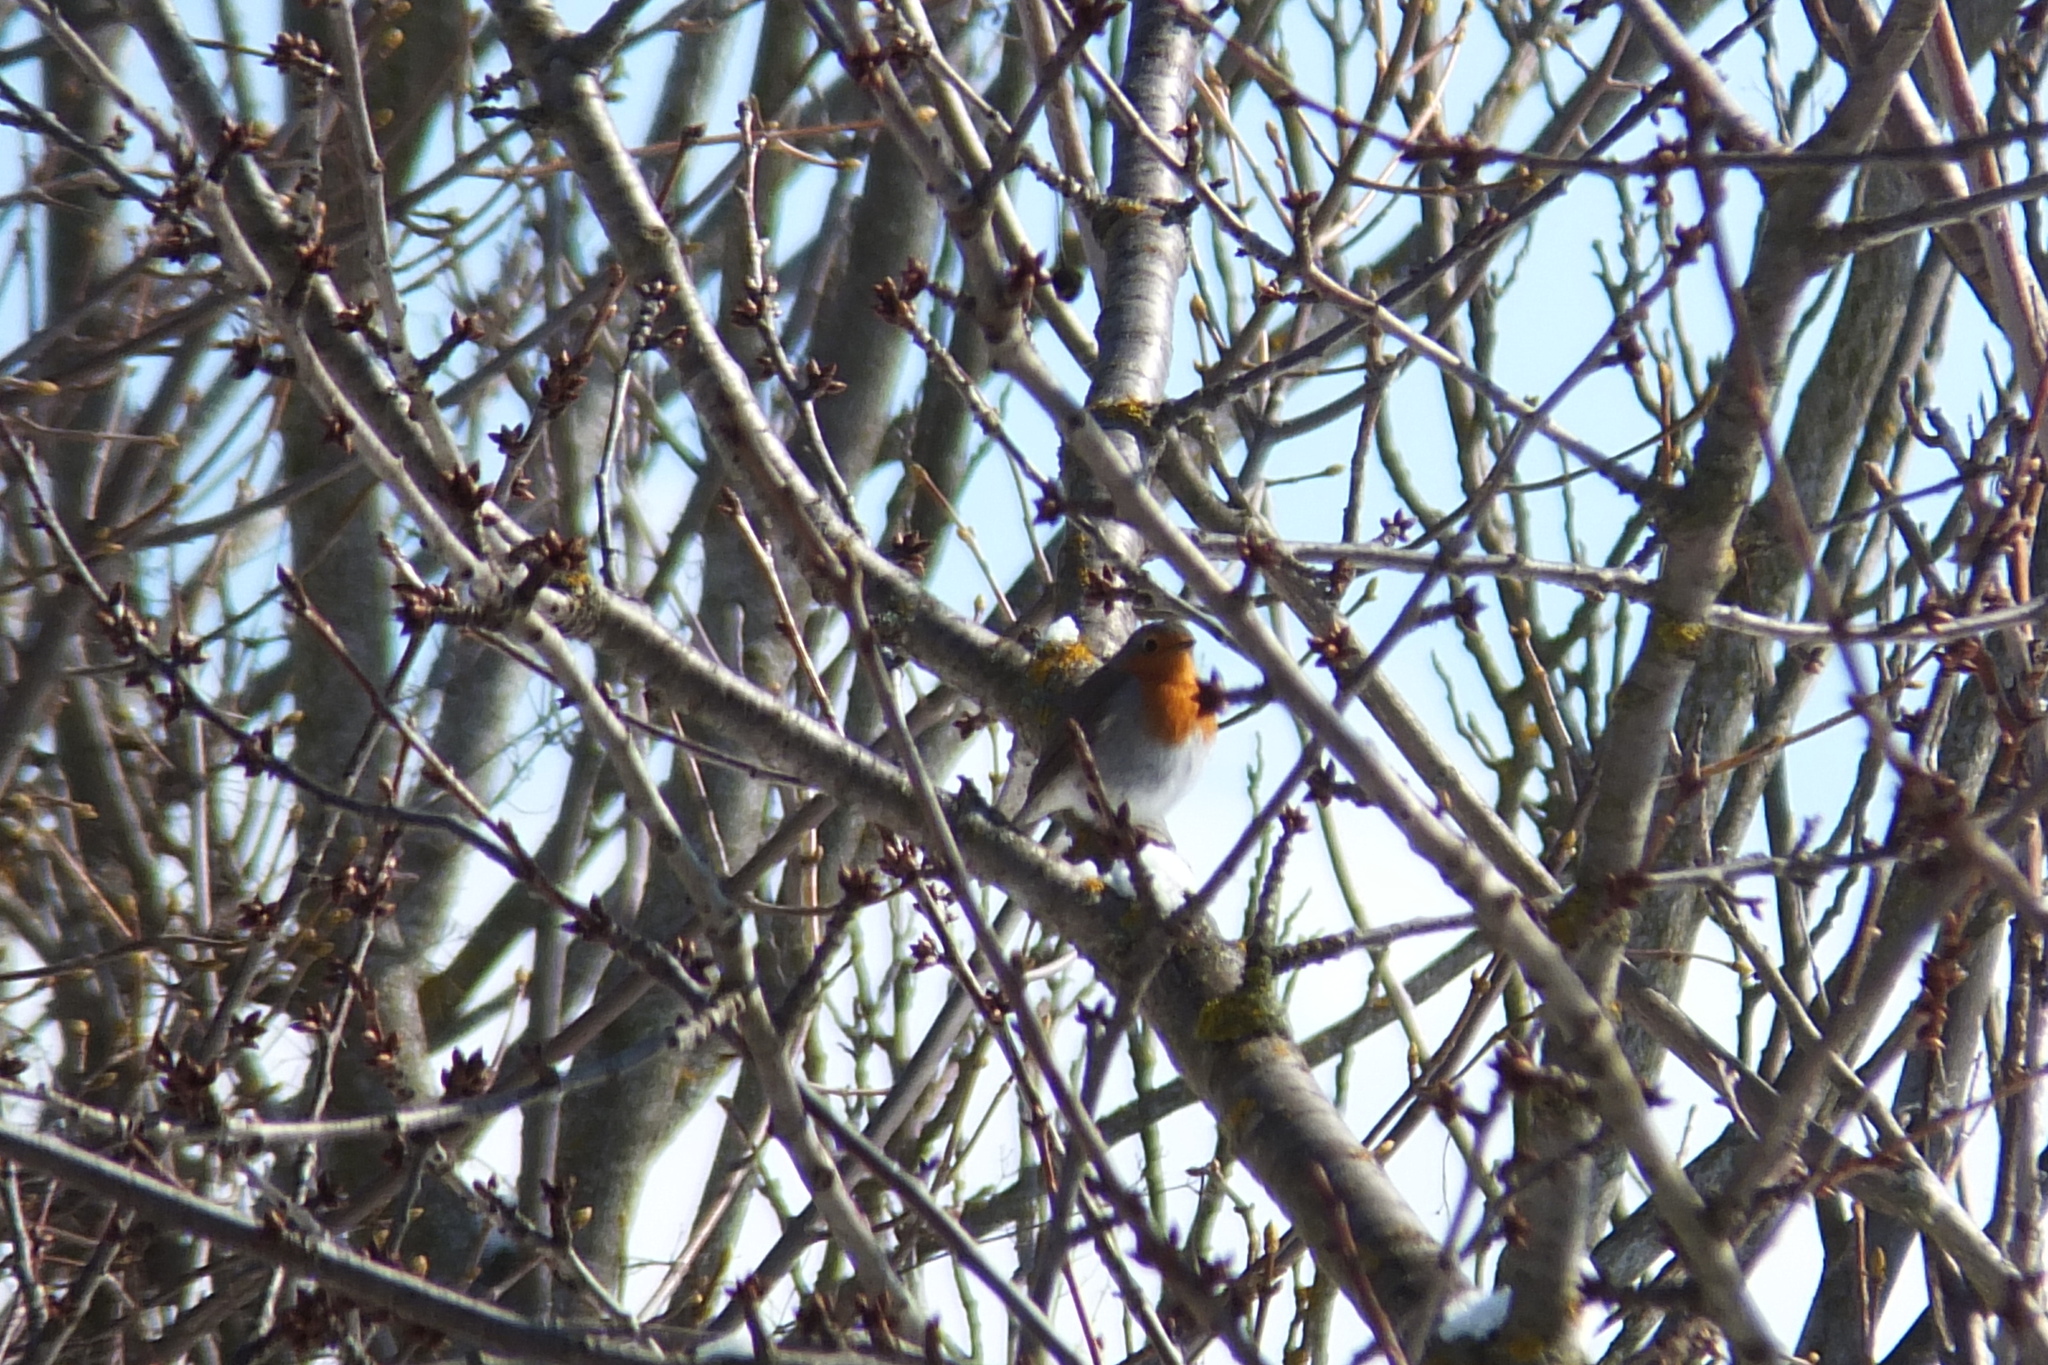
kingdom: Animalia
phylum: Chordata
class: Aves
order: Passeriformes
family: Muscicapidae
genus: Erithacus
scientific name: Erithacus rubecula
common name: European robin
